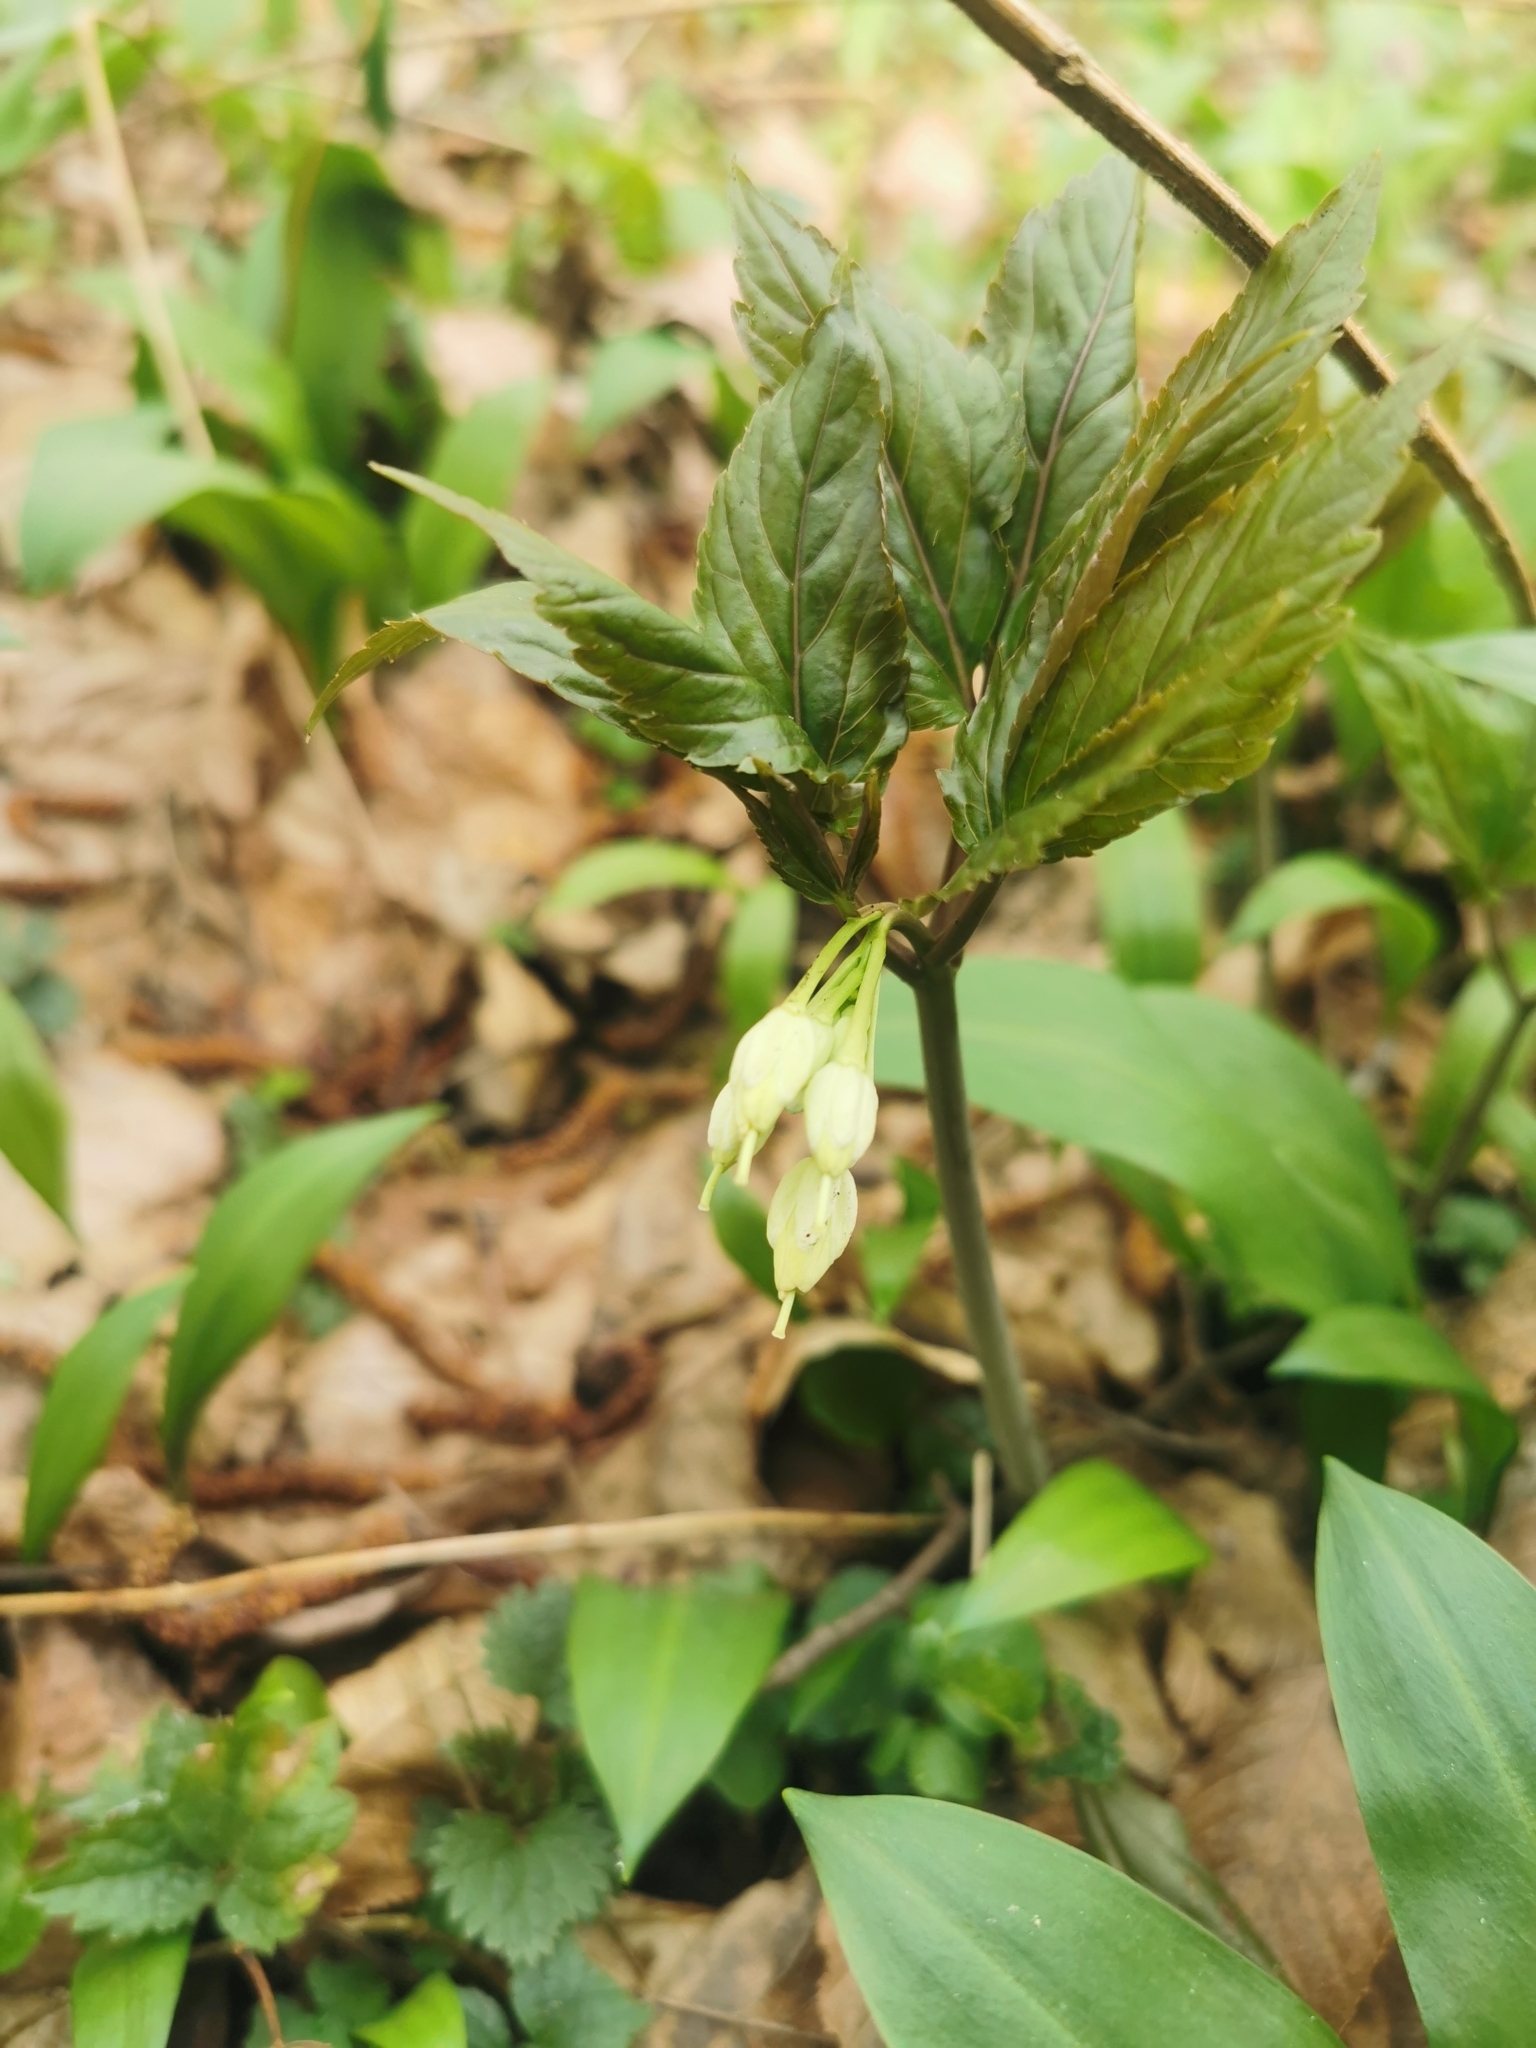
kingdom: Plantae
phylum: Tracheophyta
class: Magnoliopsida
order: Brassicales
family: Brassicaceae
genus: Cardamine
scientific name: Cardamine enneaphyllos
